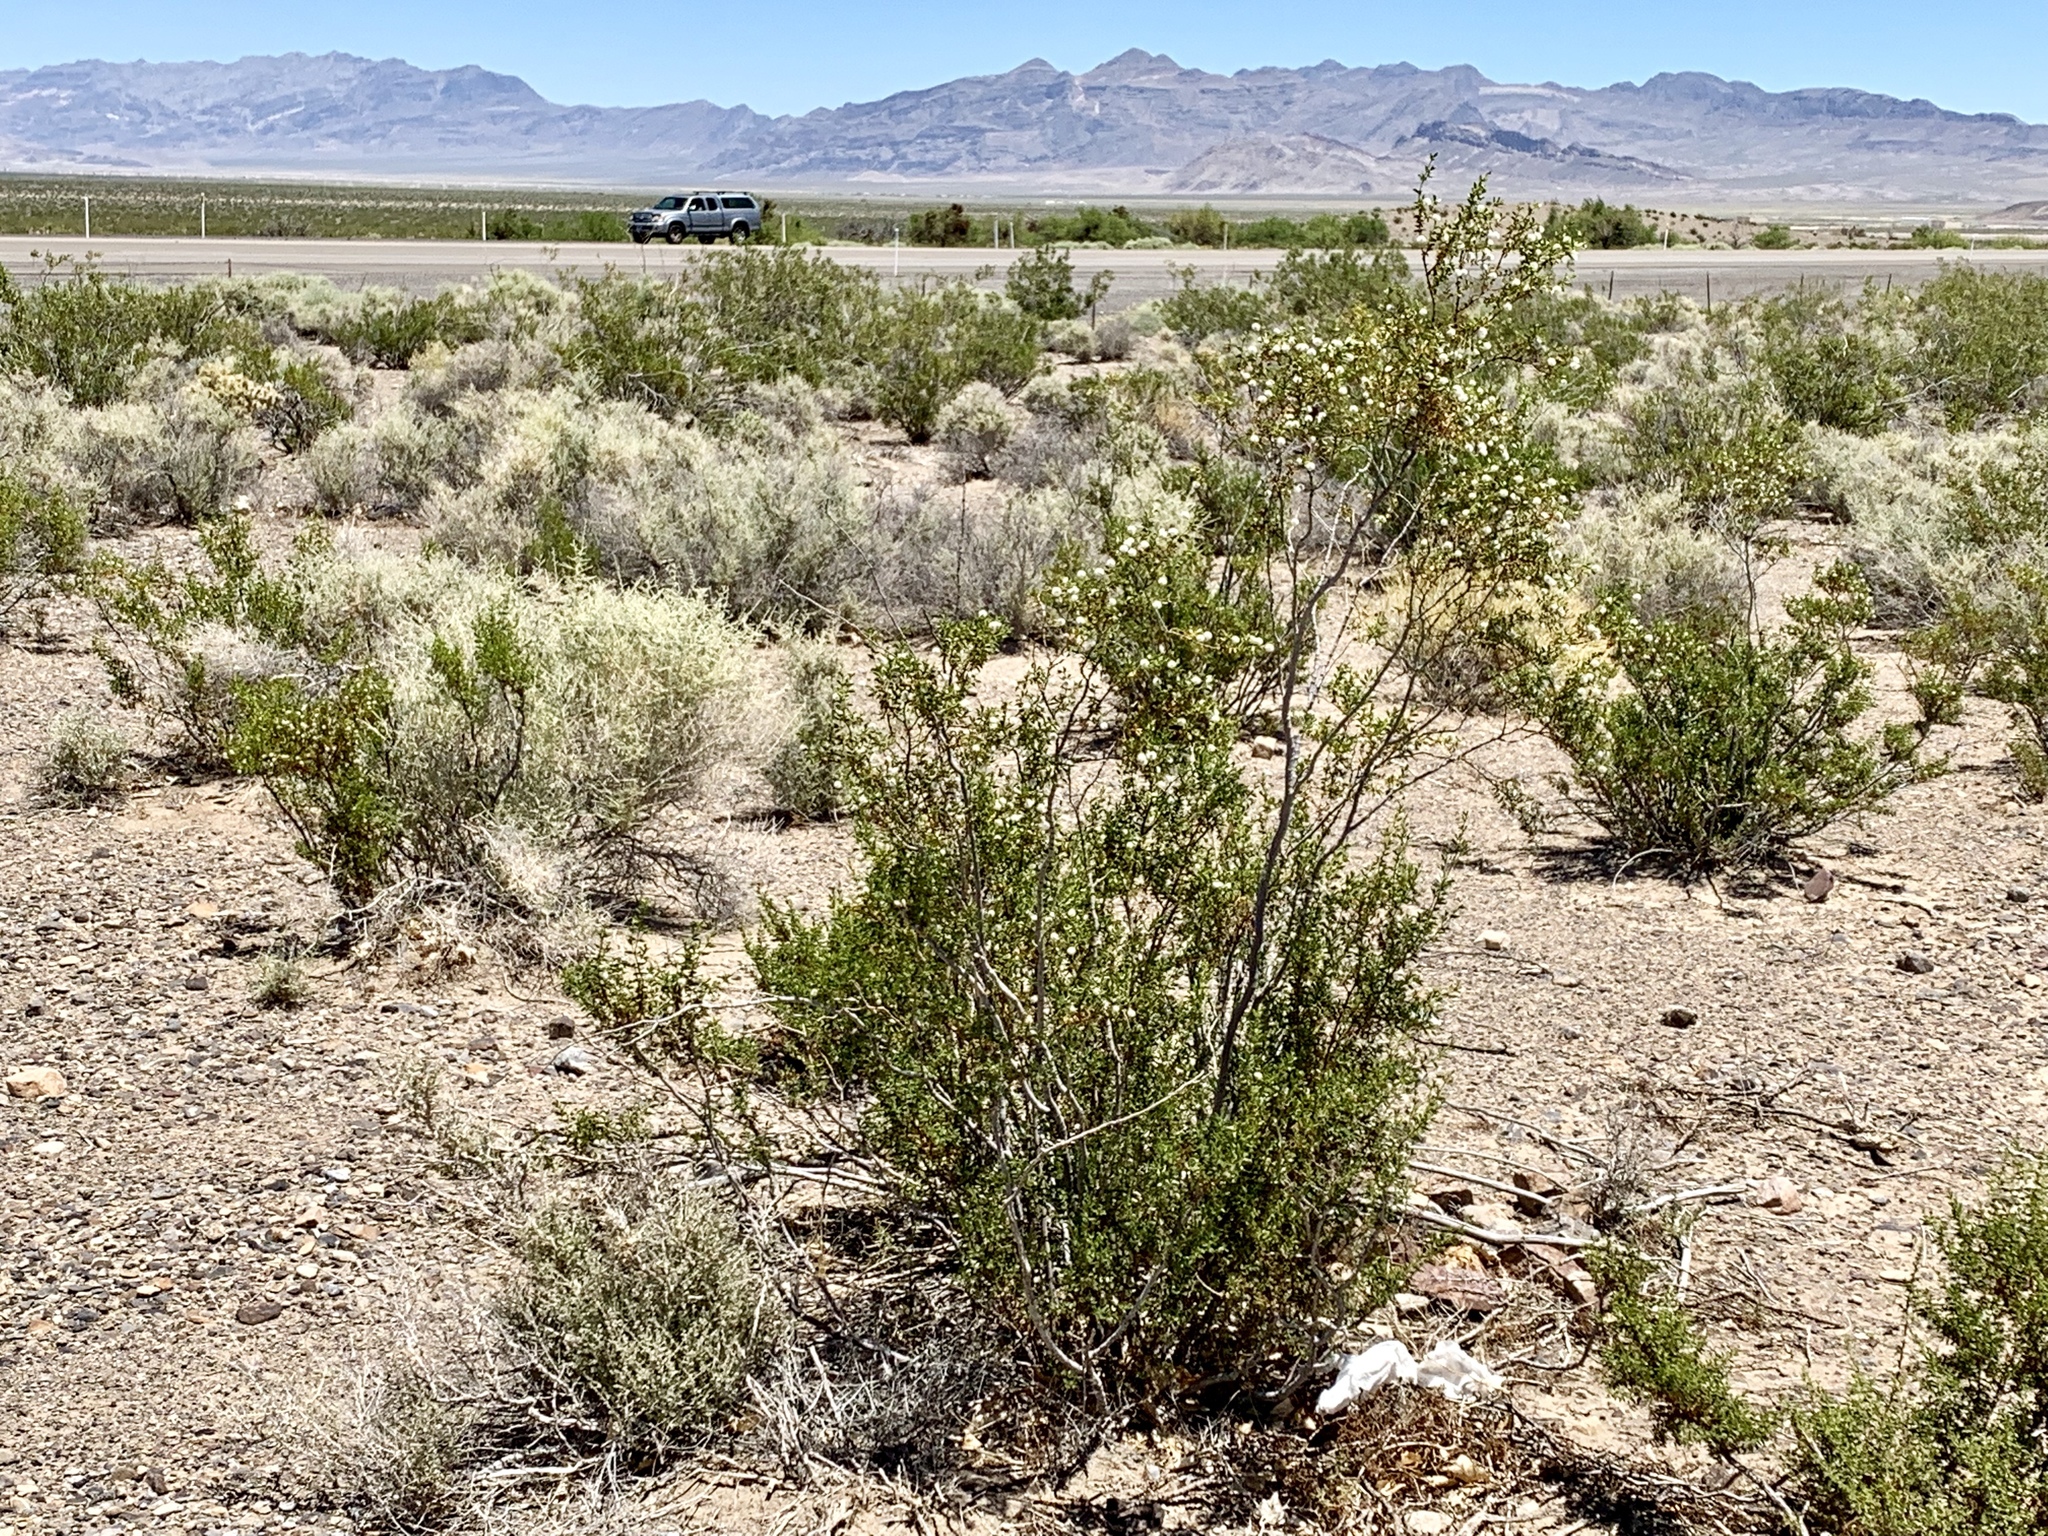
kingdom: Plantae
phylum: Tracheophyta
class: Magnoliopsida
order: Zygophyllales
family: Zygophyllaceae
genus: Larrea
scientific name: Larrea tridentata
